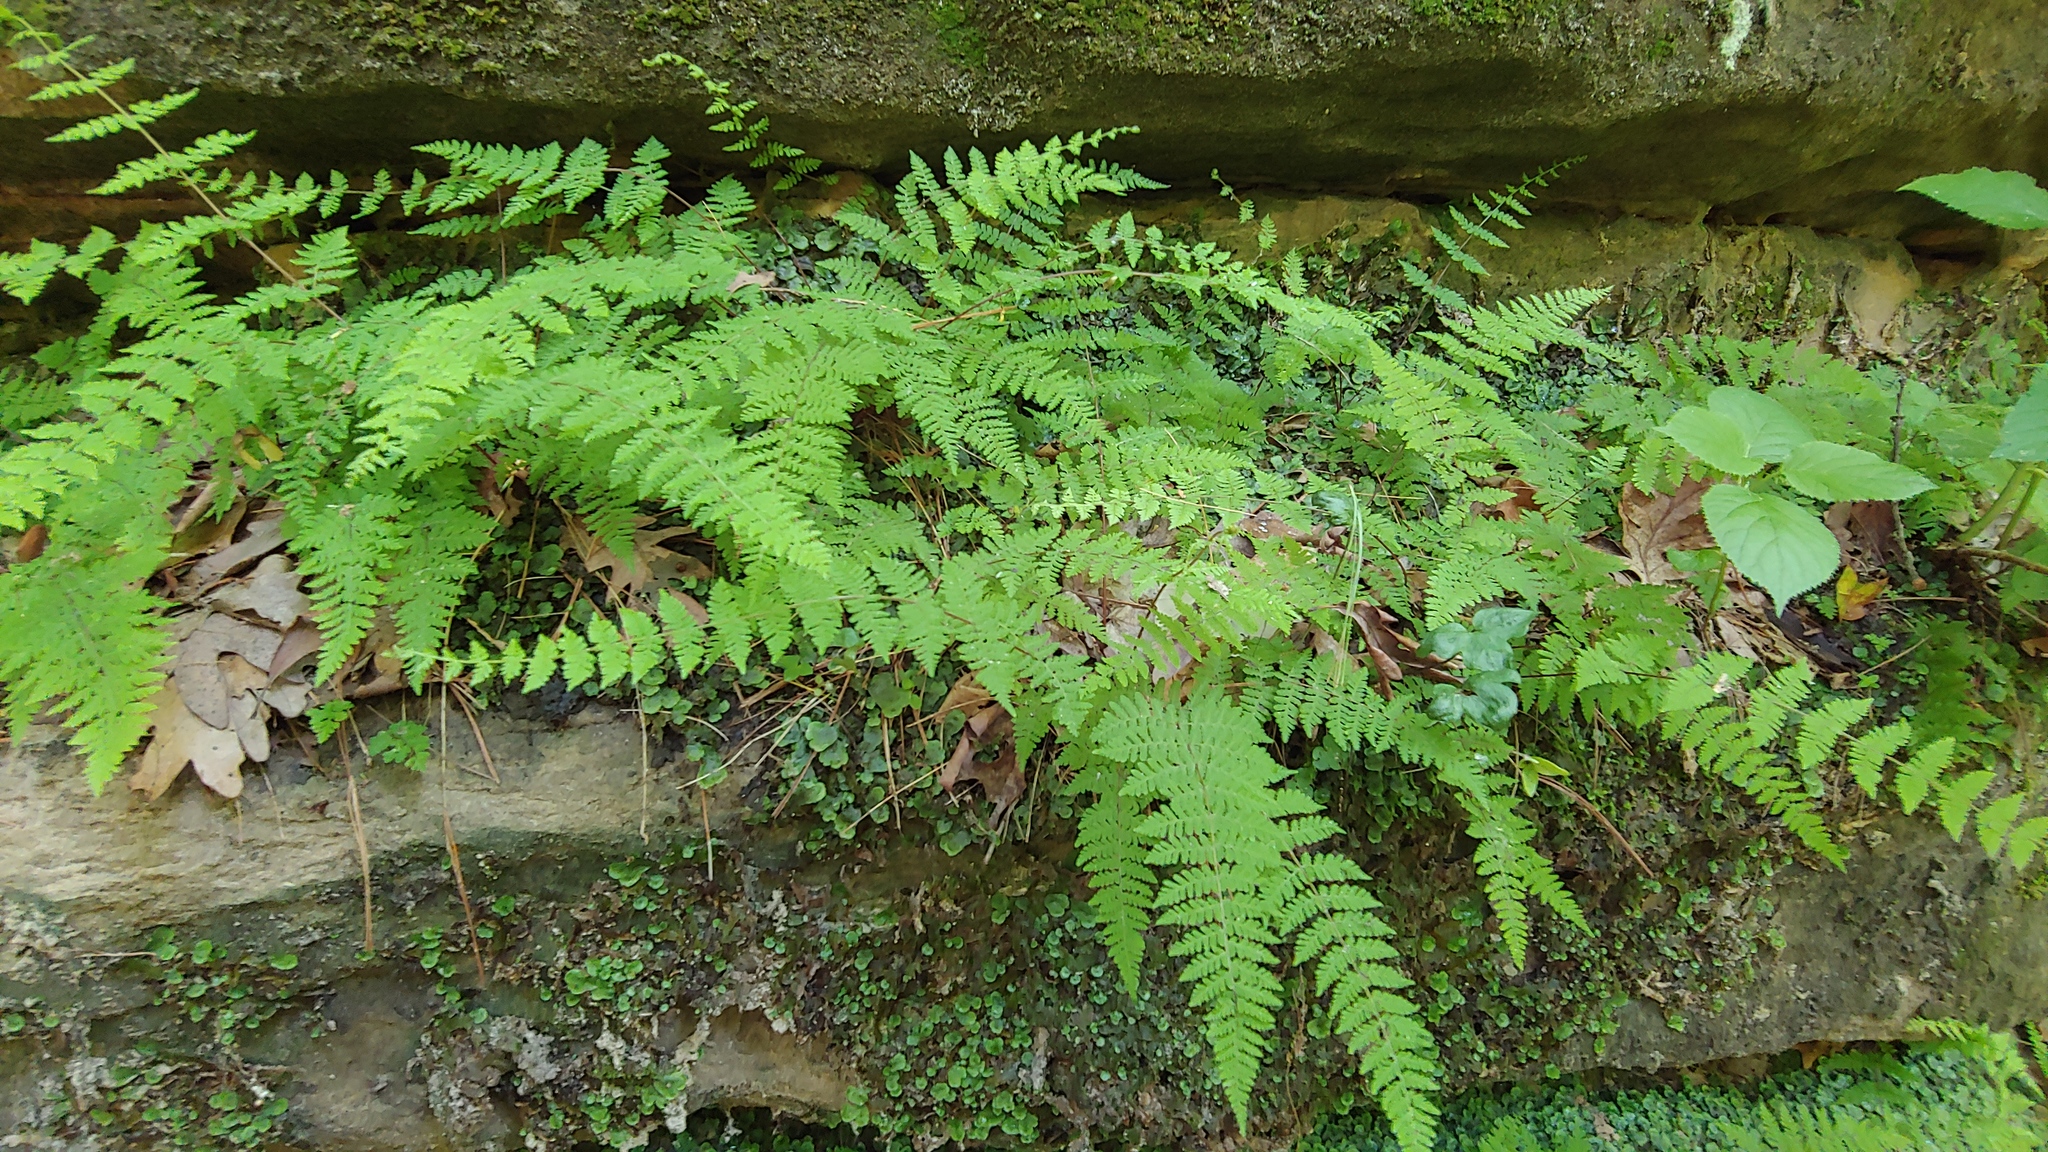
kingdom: Plantae
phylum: Tracheophyta
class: Polypodiopsida
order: Polypodiales
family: Cystopteridaceae
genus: Cystopteris
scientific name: Cystopteris bulbifera
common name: Bulblet bladder fern
